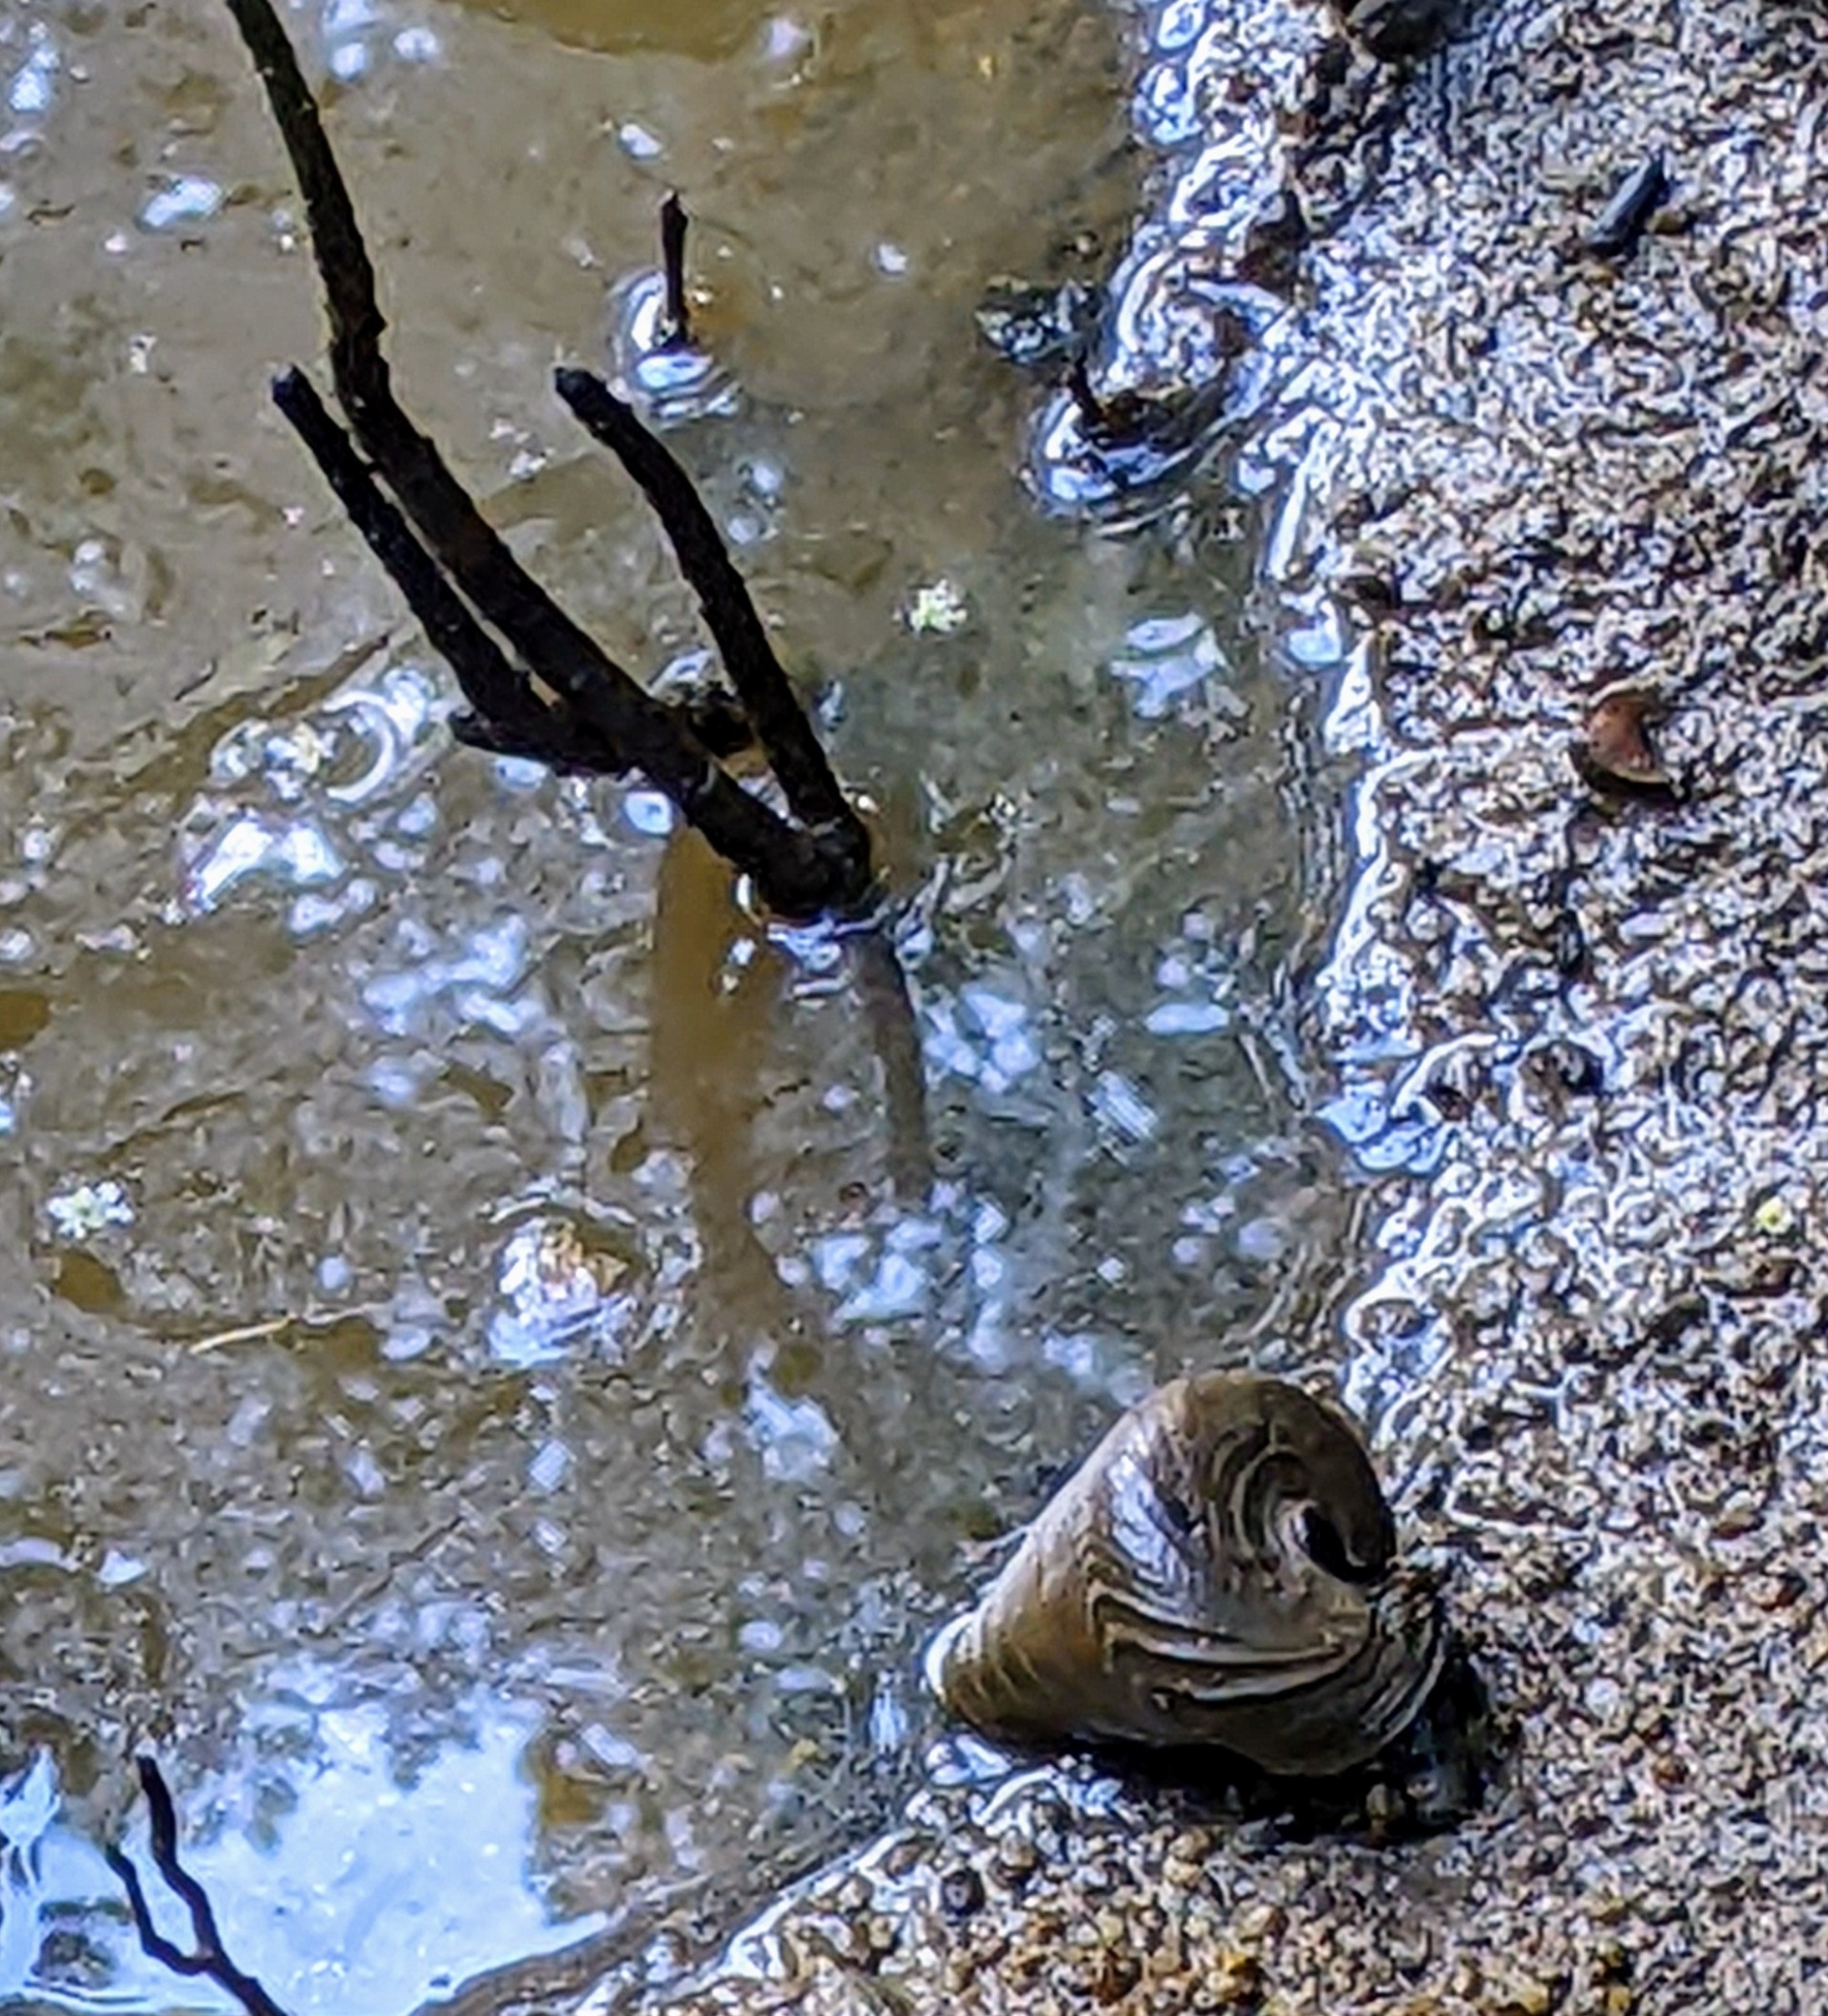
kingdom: Animalia
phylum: Mollusca
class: Gastropoda
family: Potamididae
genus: Telescopium
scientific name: Telescopium telescopium
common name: Telescope creeper
